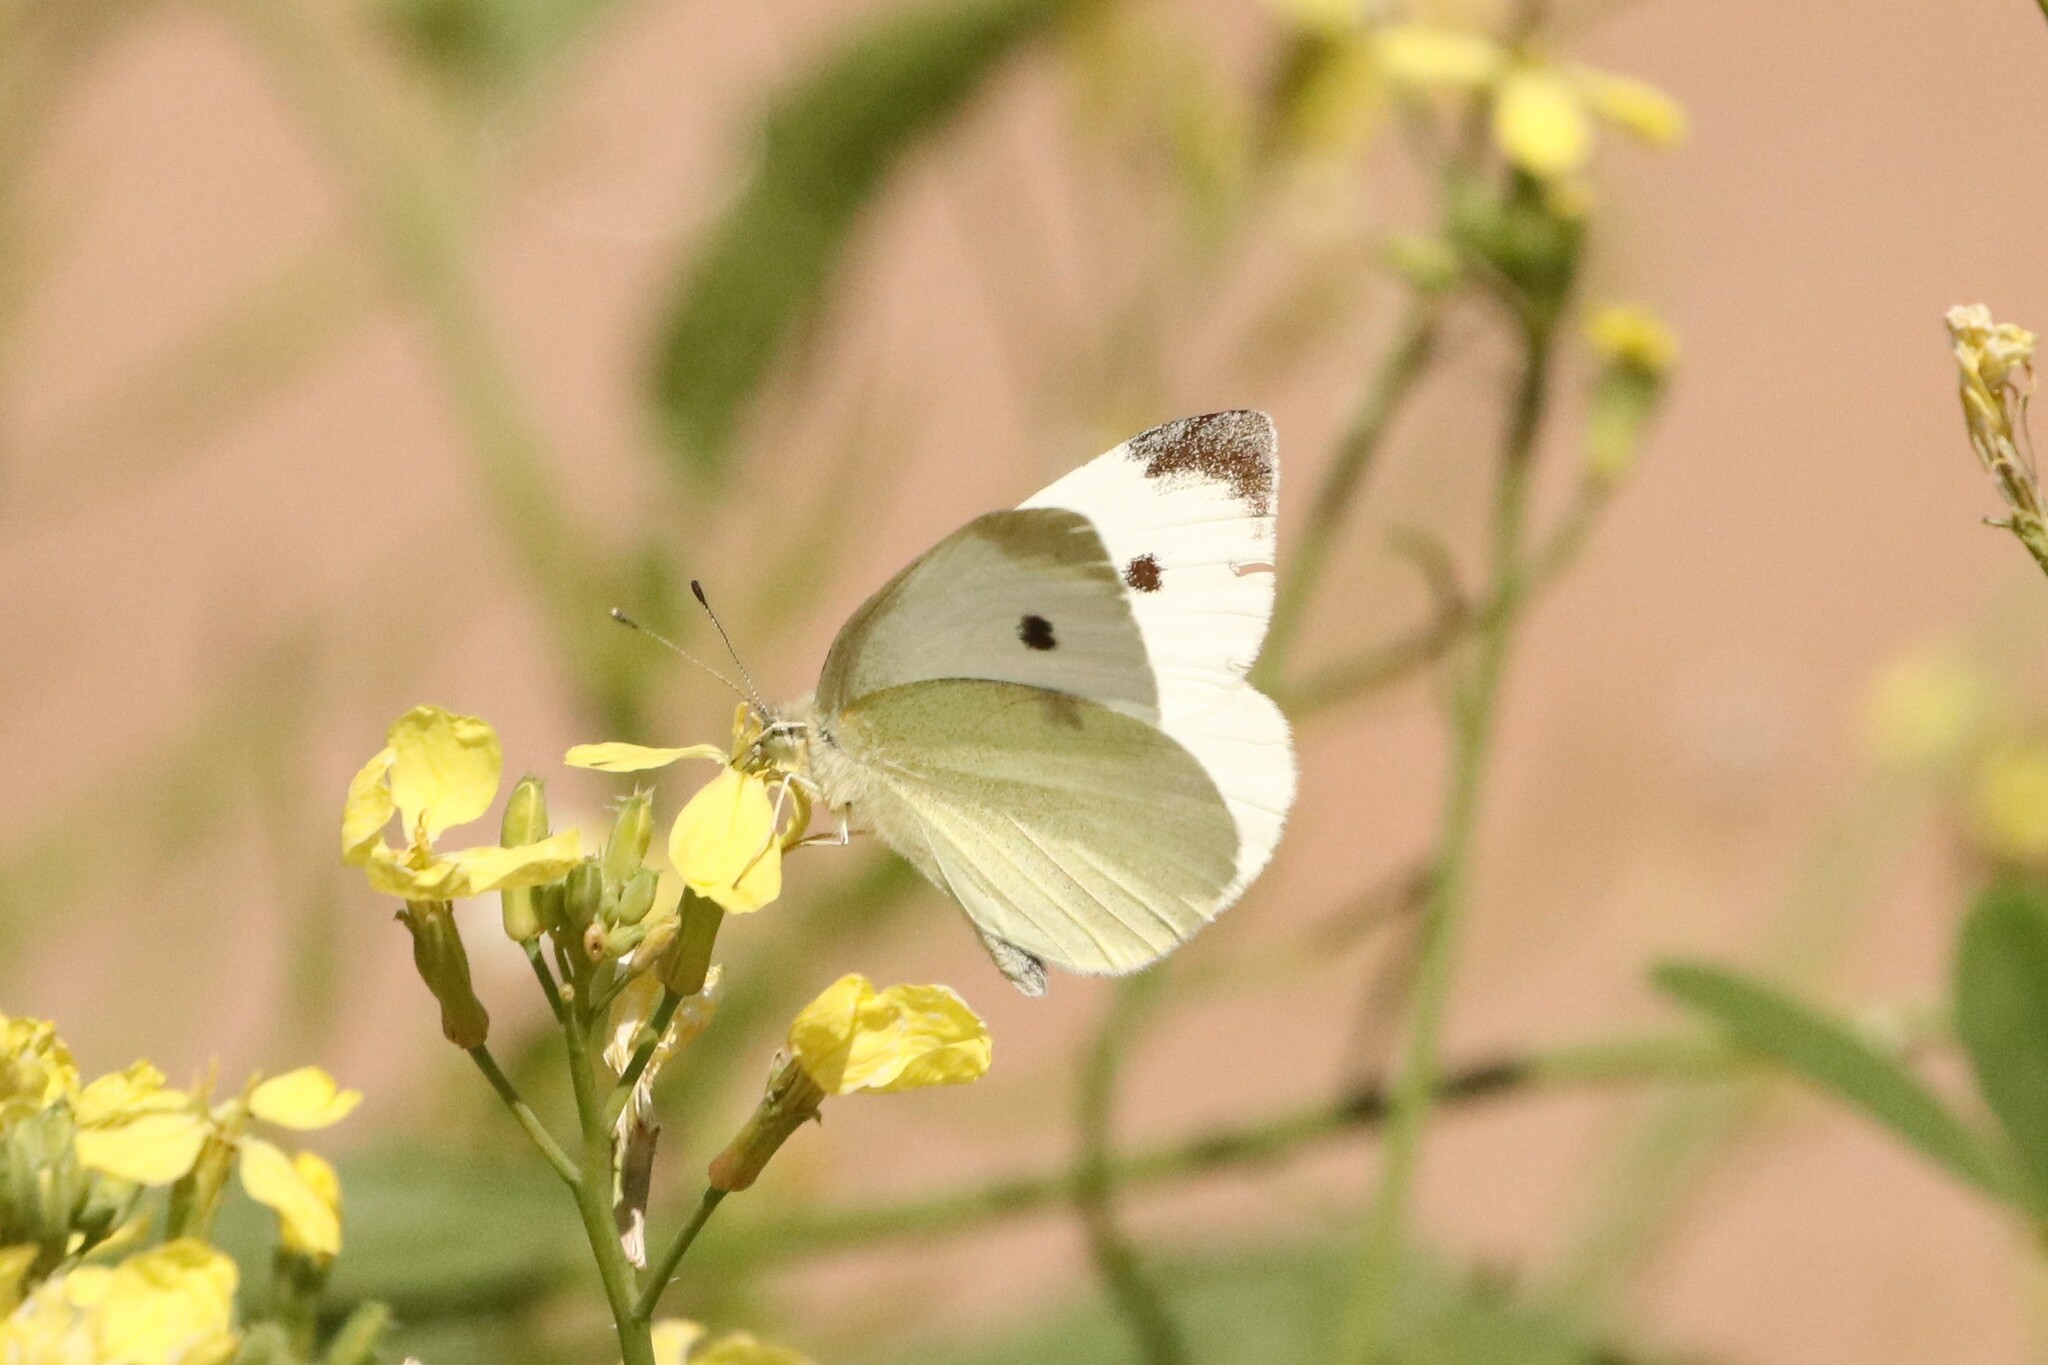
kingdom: Animalia
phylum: Arthropoda
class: Insecta
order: Lepidoptera
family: Pieridae
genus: Pieris
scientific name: Pieris rapae
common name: Small white
